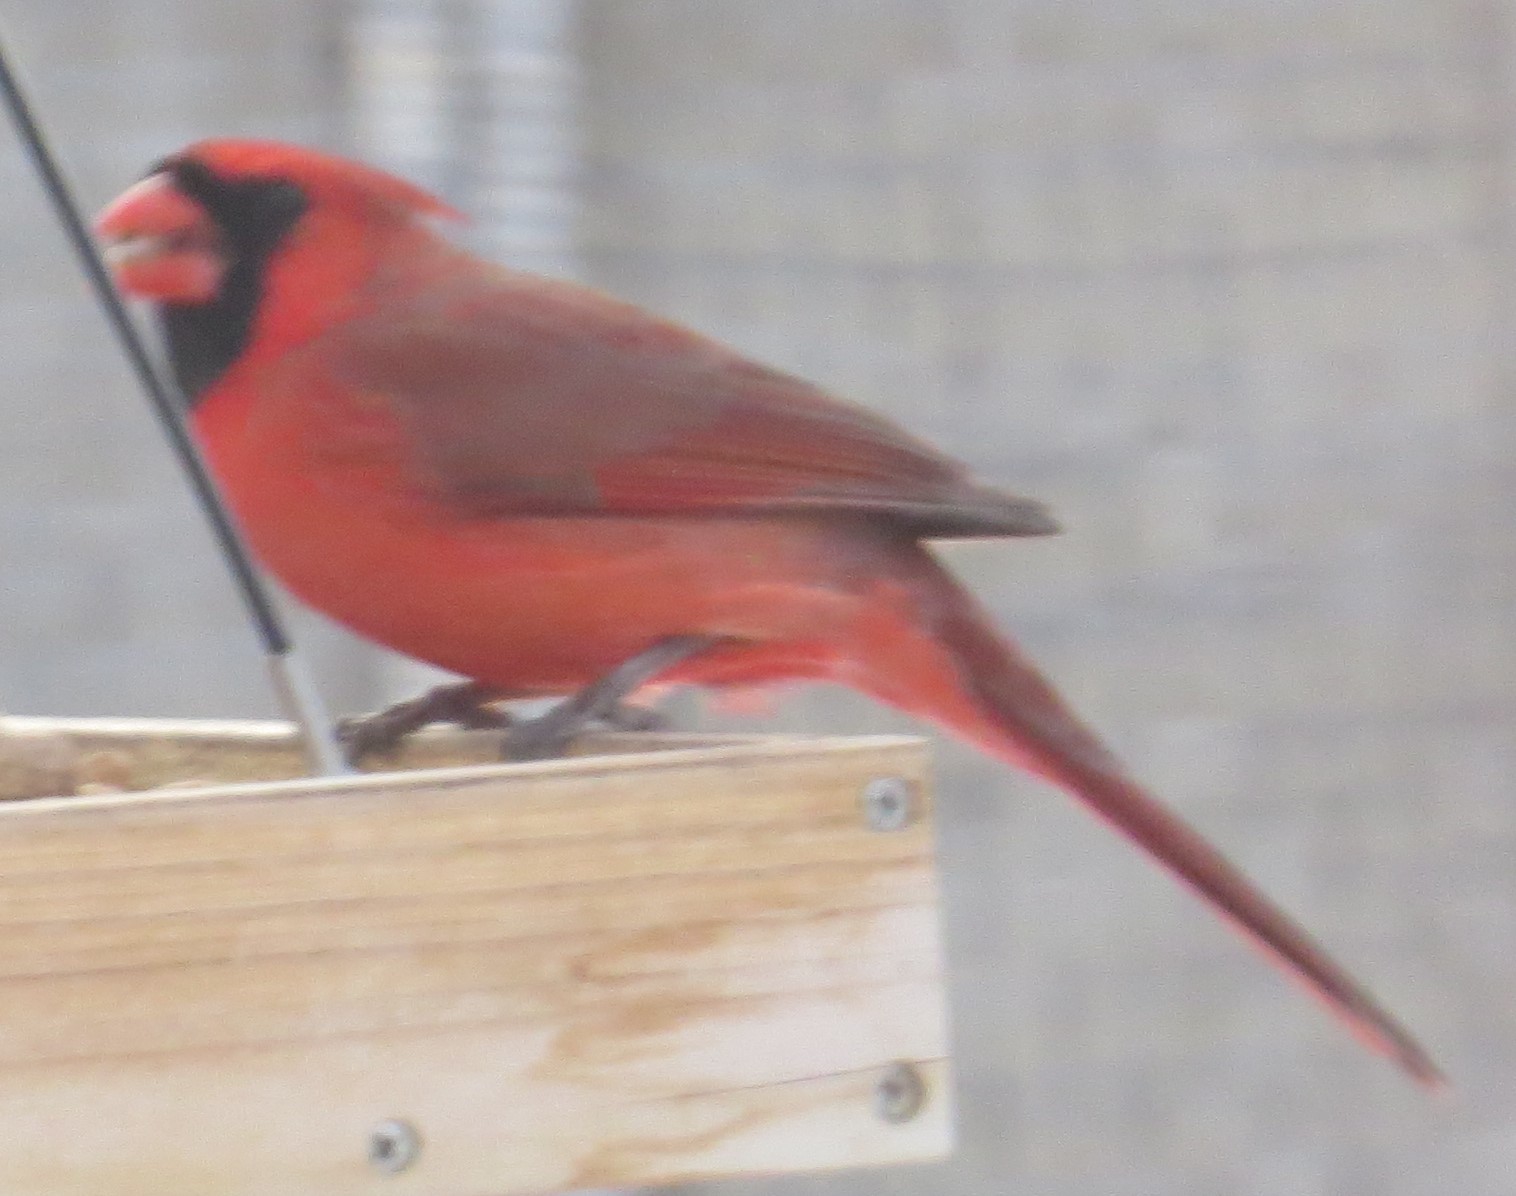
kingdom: Animalia
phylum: Chordata
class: Aves
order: Passeriformes
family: Cardinalidae
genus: Cardinalis
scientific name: Cardinalis cardinalis
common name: Northern cardinal
